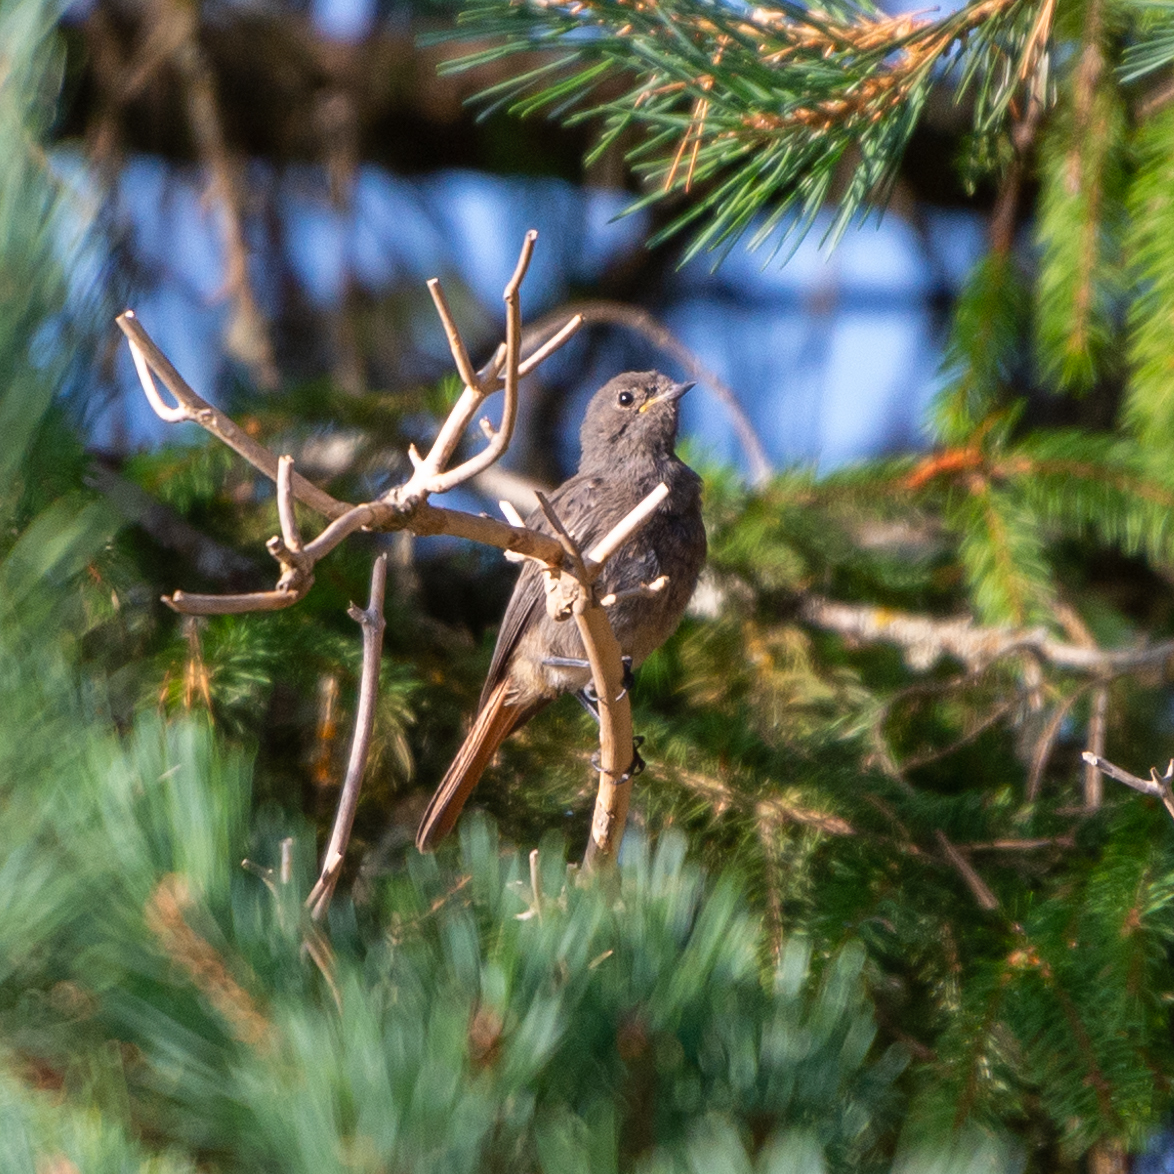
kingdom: Animalia
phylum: Chordata
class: Aves
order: Passeriformes
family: Muscicapidae
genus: Phoenicurus
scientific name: Phoenicurus ochruros
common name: Black redstart
